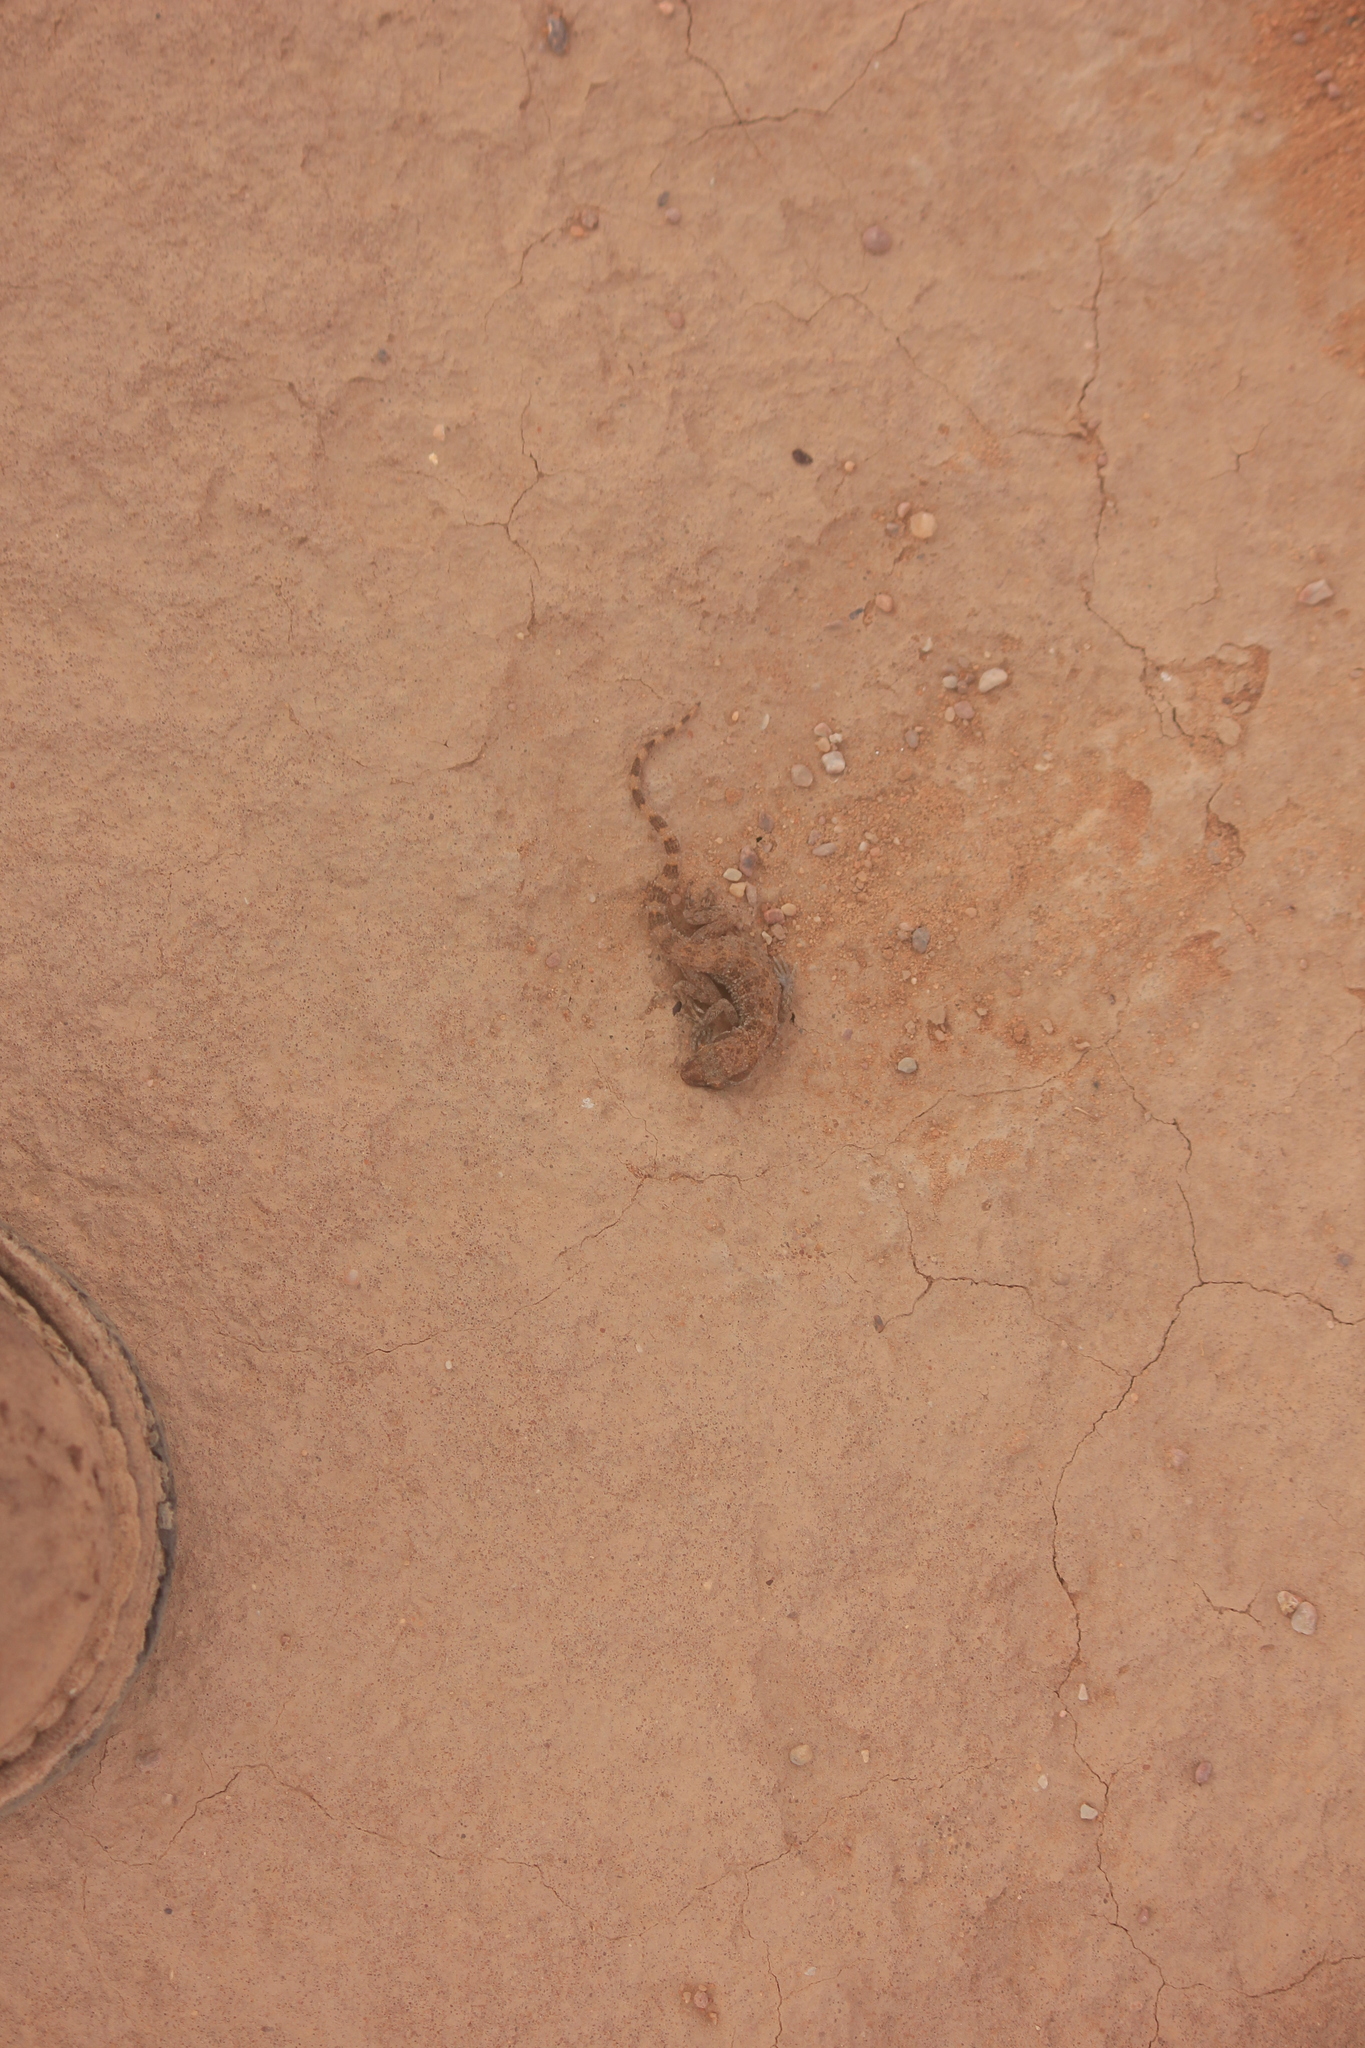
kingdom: Animalia
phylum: Chordata
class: Squamata
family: Gekkonidae
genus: Bunopus
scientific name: Bunopus tuberculatus
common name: Southern tuberculated gecko
